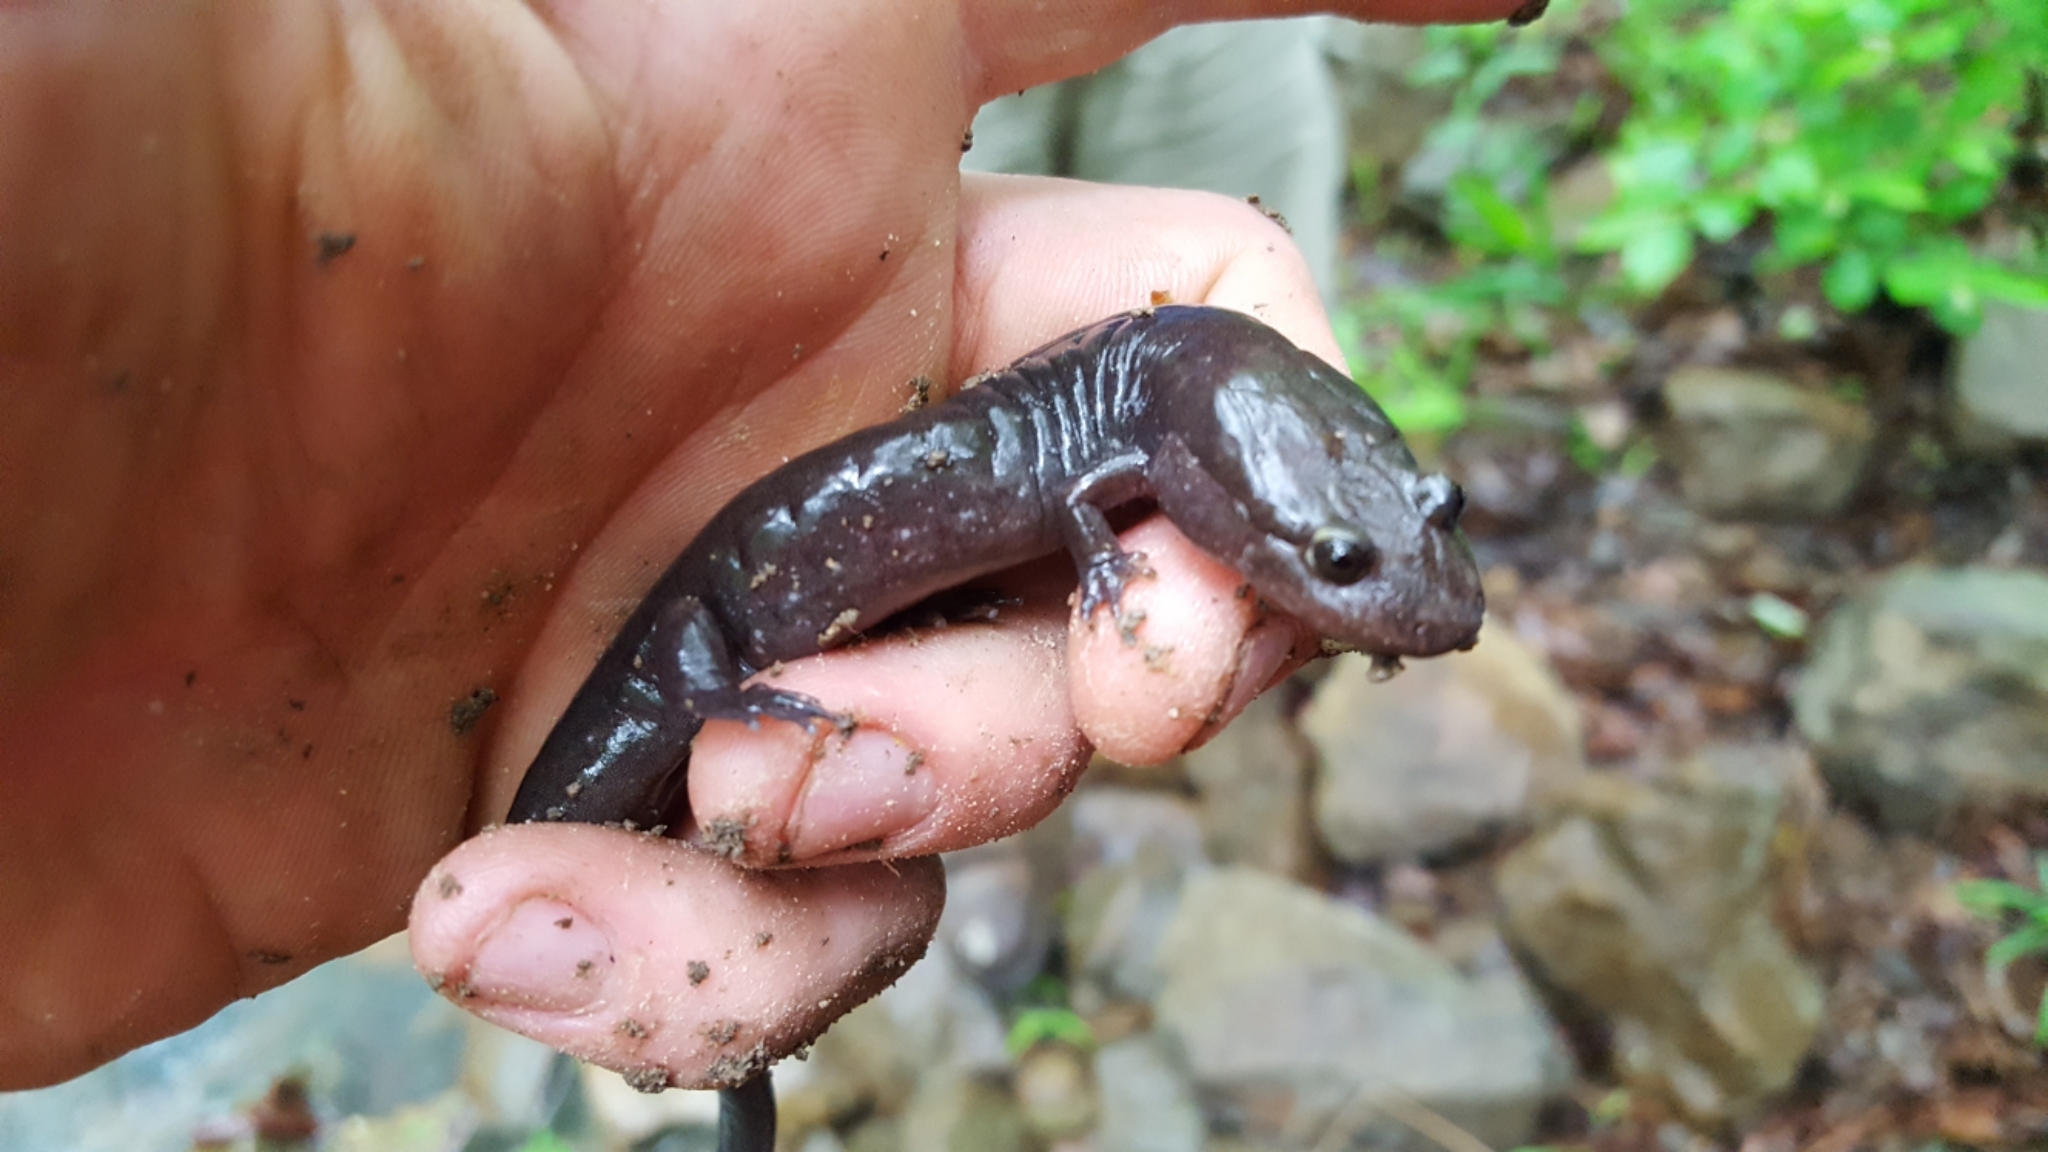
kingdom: Animalia
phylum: Chordata
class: Amphibia
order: Caudata
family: Plethodontidae
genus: Desmognathus
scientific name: Desmognathus brimleyorum
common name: Ouachita dusky salamander
